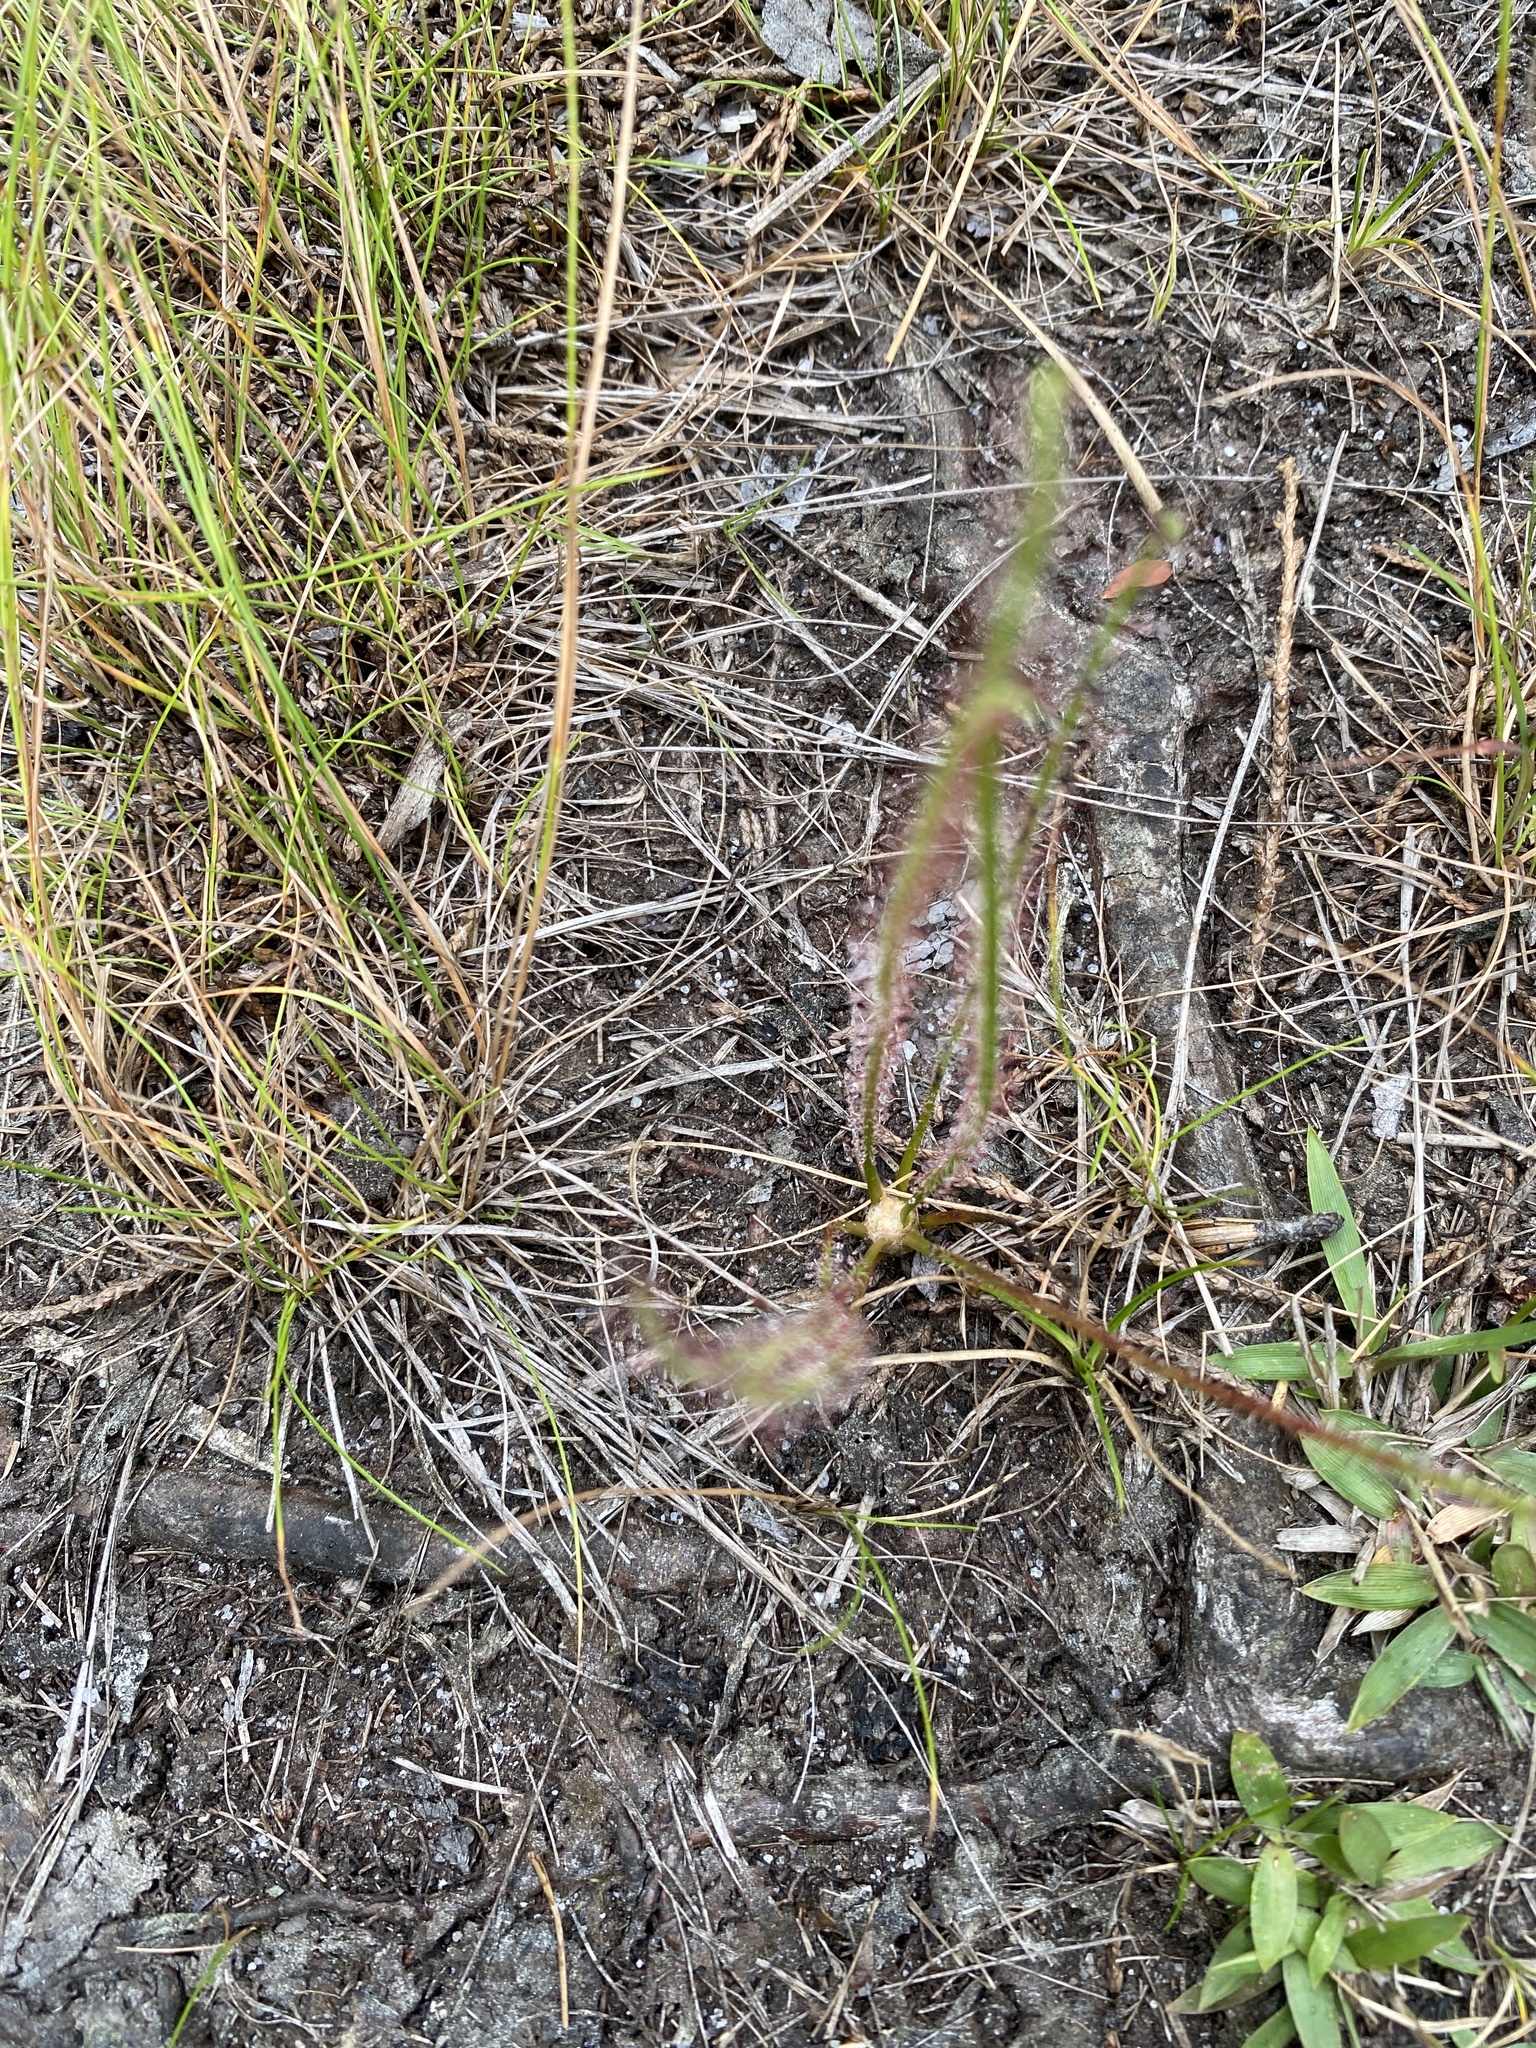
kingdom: Plantae
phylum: Tracheophyta
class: Magnoliopsida
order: Caryophyllales
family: Droseraceae
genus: Drosera
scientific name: Drosera filiformis
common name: Dew-thread
